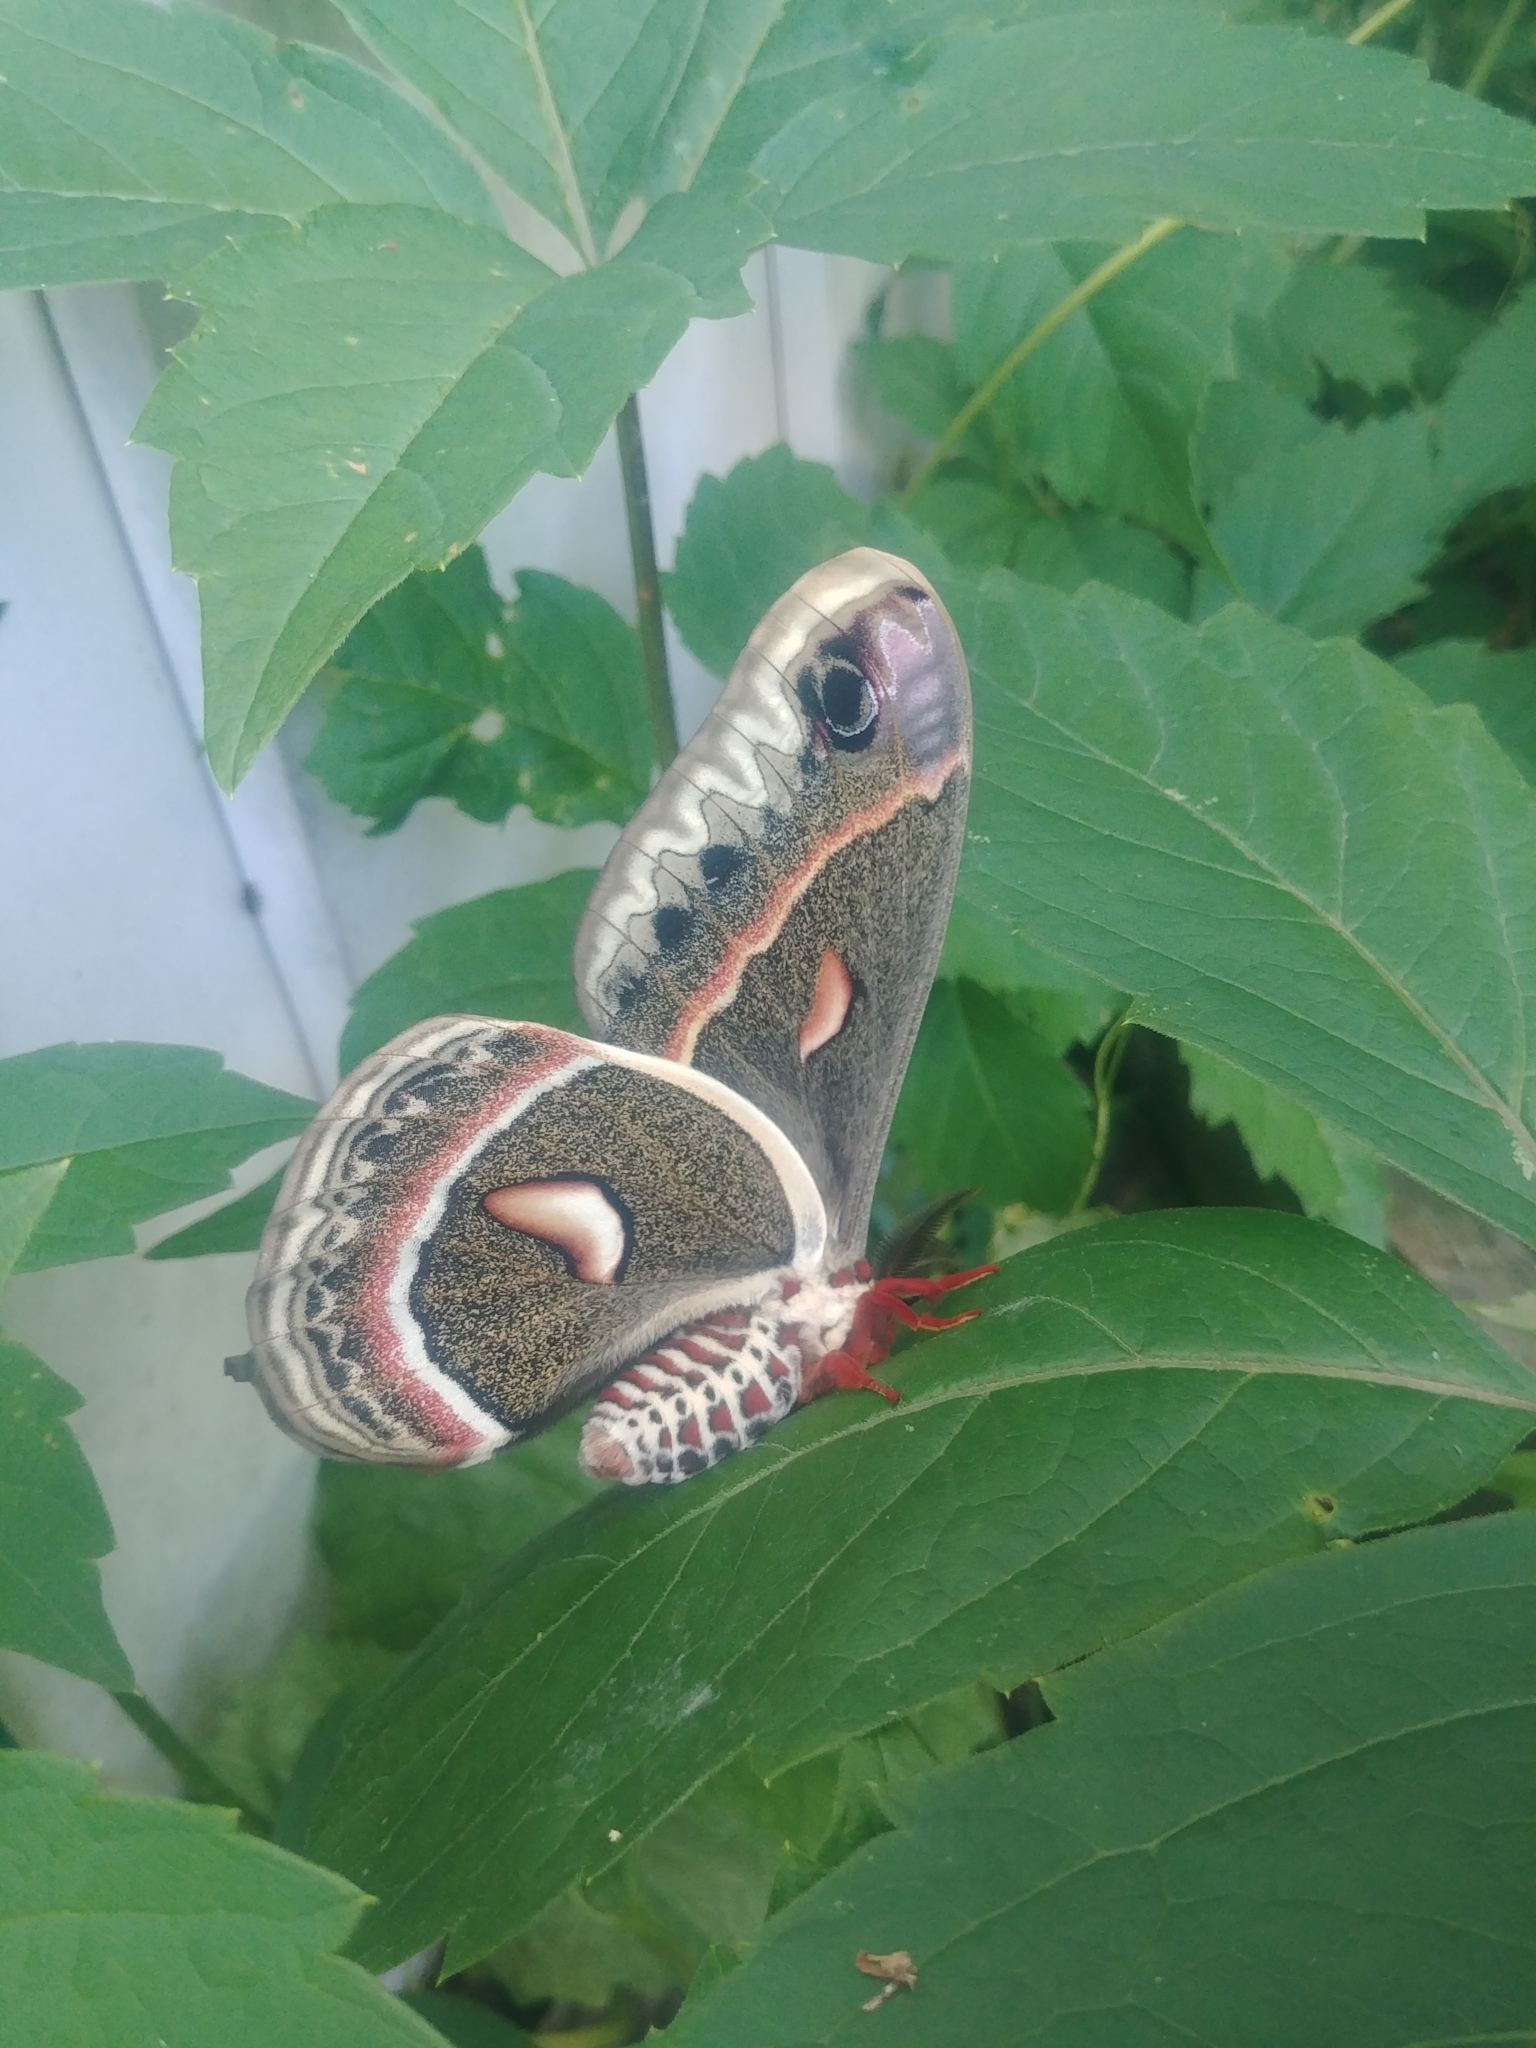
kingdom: Animalia
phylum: Arthropoda
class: Insecta
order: Lepidoptera
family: Saturniidae
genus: Hyalophora
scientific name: Hyalophora cecropia
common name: Cecropia silkmoth
